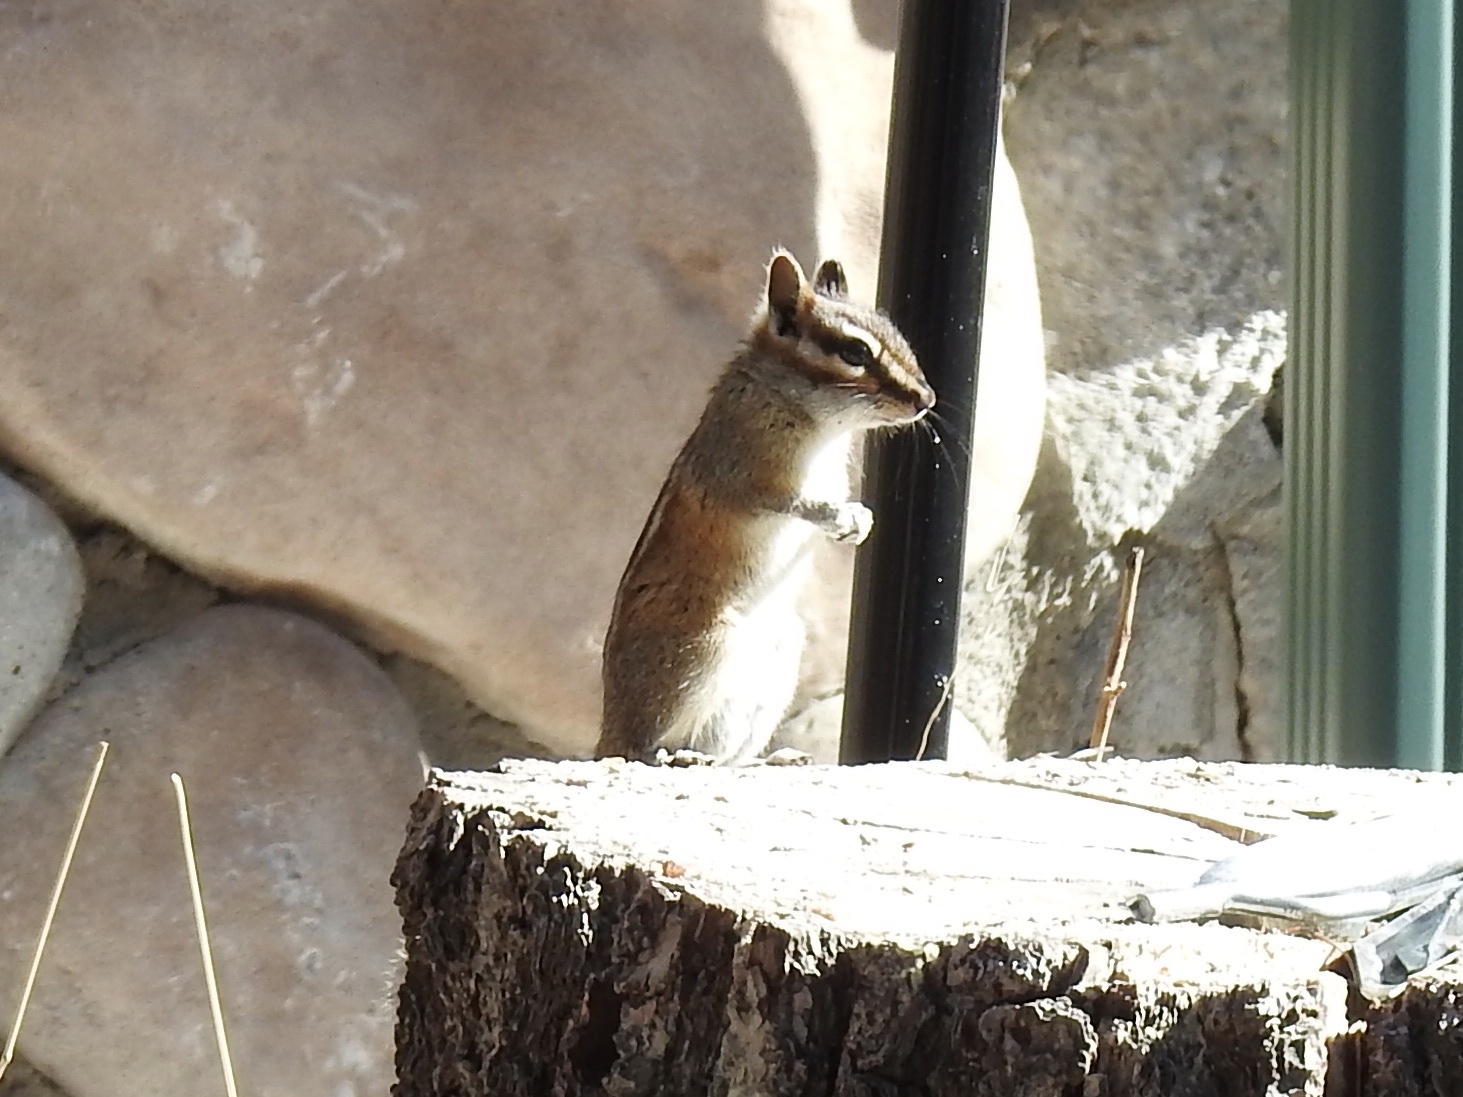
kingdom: Animalia
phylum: Chordata
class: Mammalia
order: Rodentia
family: Sciuridae
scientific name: Sciuridae
